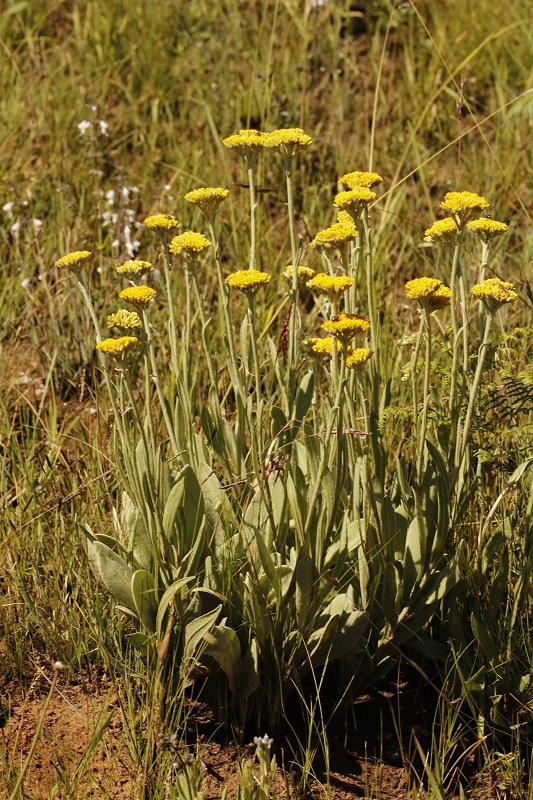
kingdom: Plantae
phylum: Tracheophyta
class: Magnoliopsida
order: Asterales
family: Asteraceae
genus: Helichrysum
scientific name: Helichrysum acutatum
